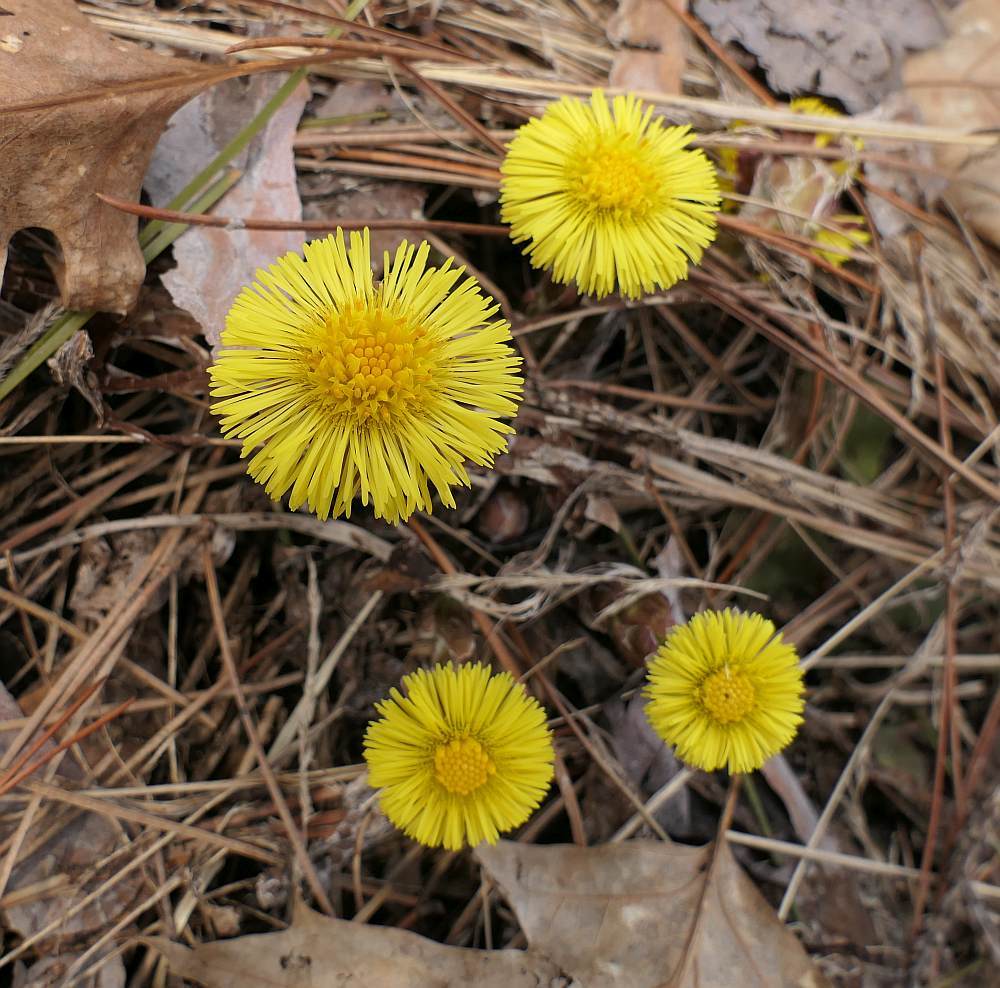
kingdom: Plantae
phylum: Tracheophyta
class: Magnoliopsida
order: Asterales
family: Asteraceae
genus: Tussilago
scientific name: Tussilago farfara
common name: Coltsfoot
